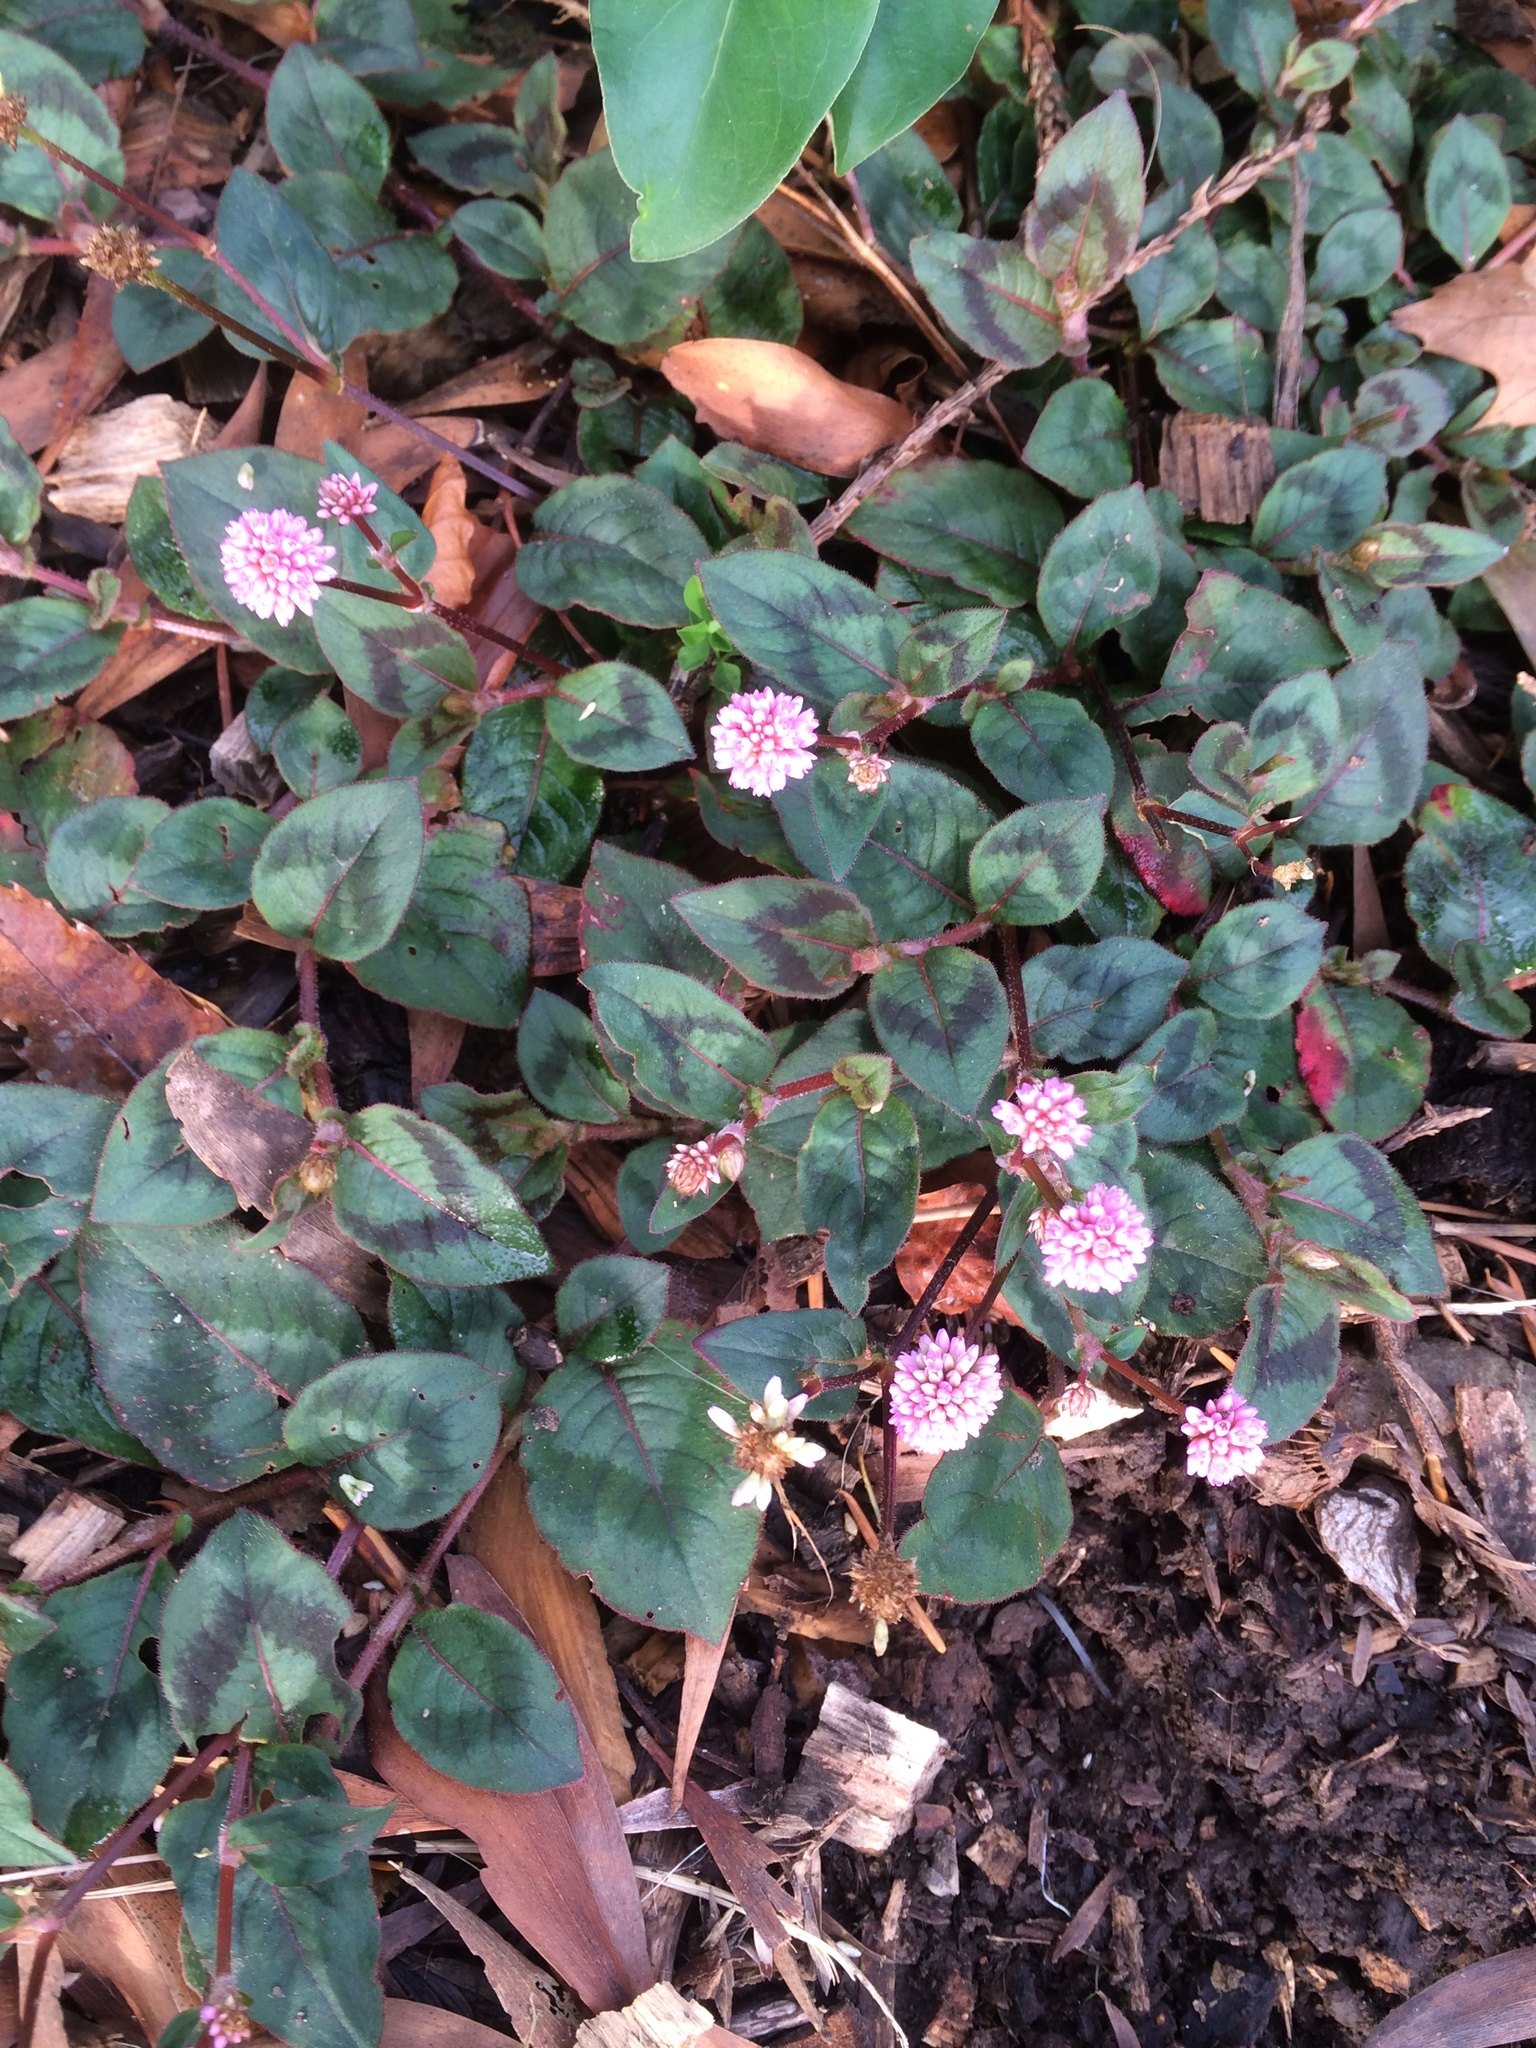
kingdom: Plantae
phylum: Tracheophyta
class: Magnoliopsida
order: Caryophyllales
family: Polygonaceae
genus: Persicaria
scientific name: Persicaria capitata
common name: Pinkhead smartweed
